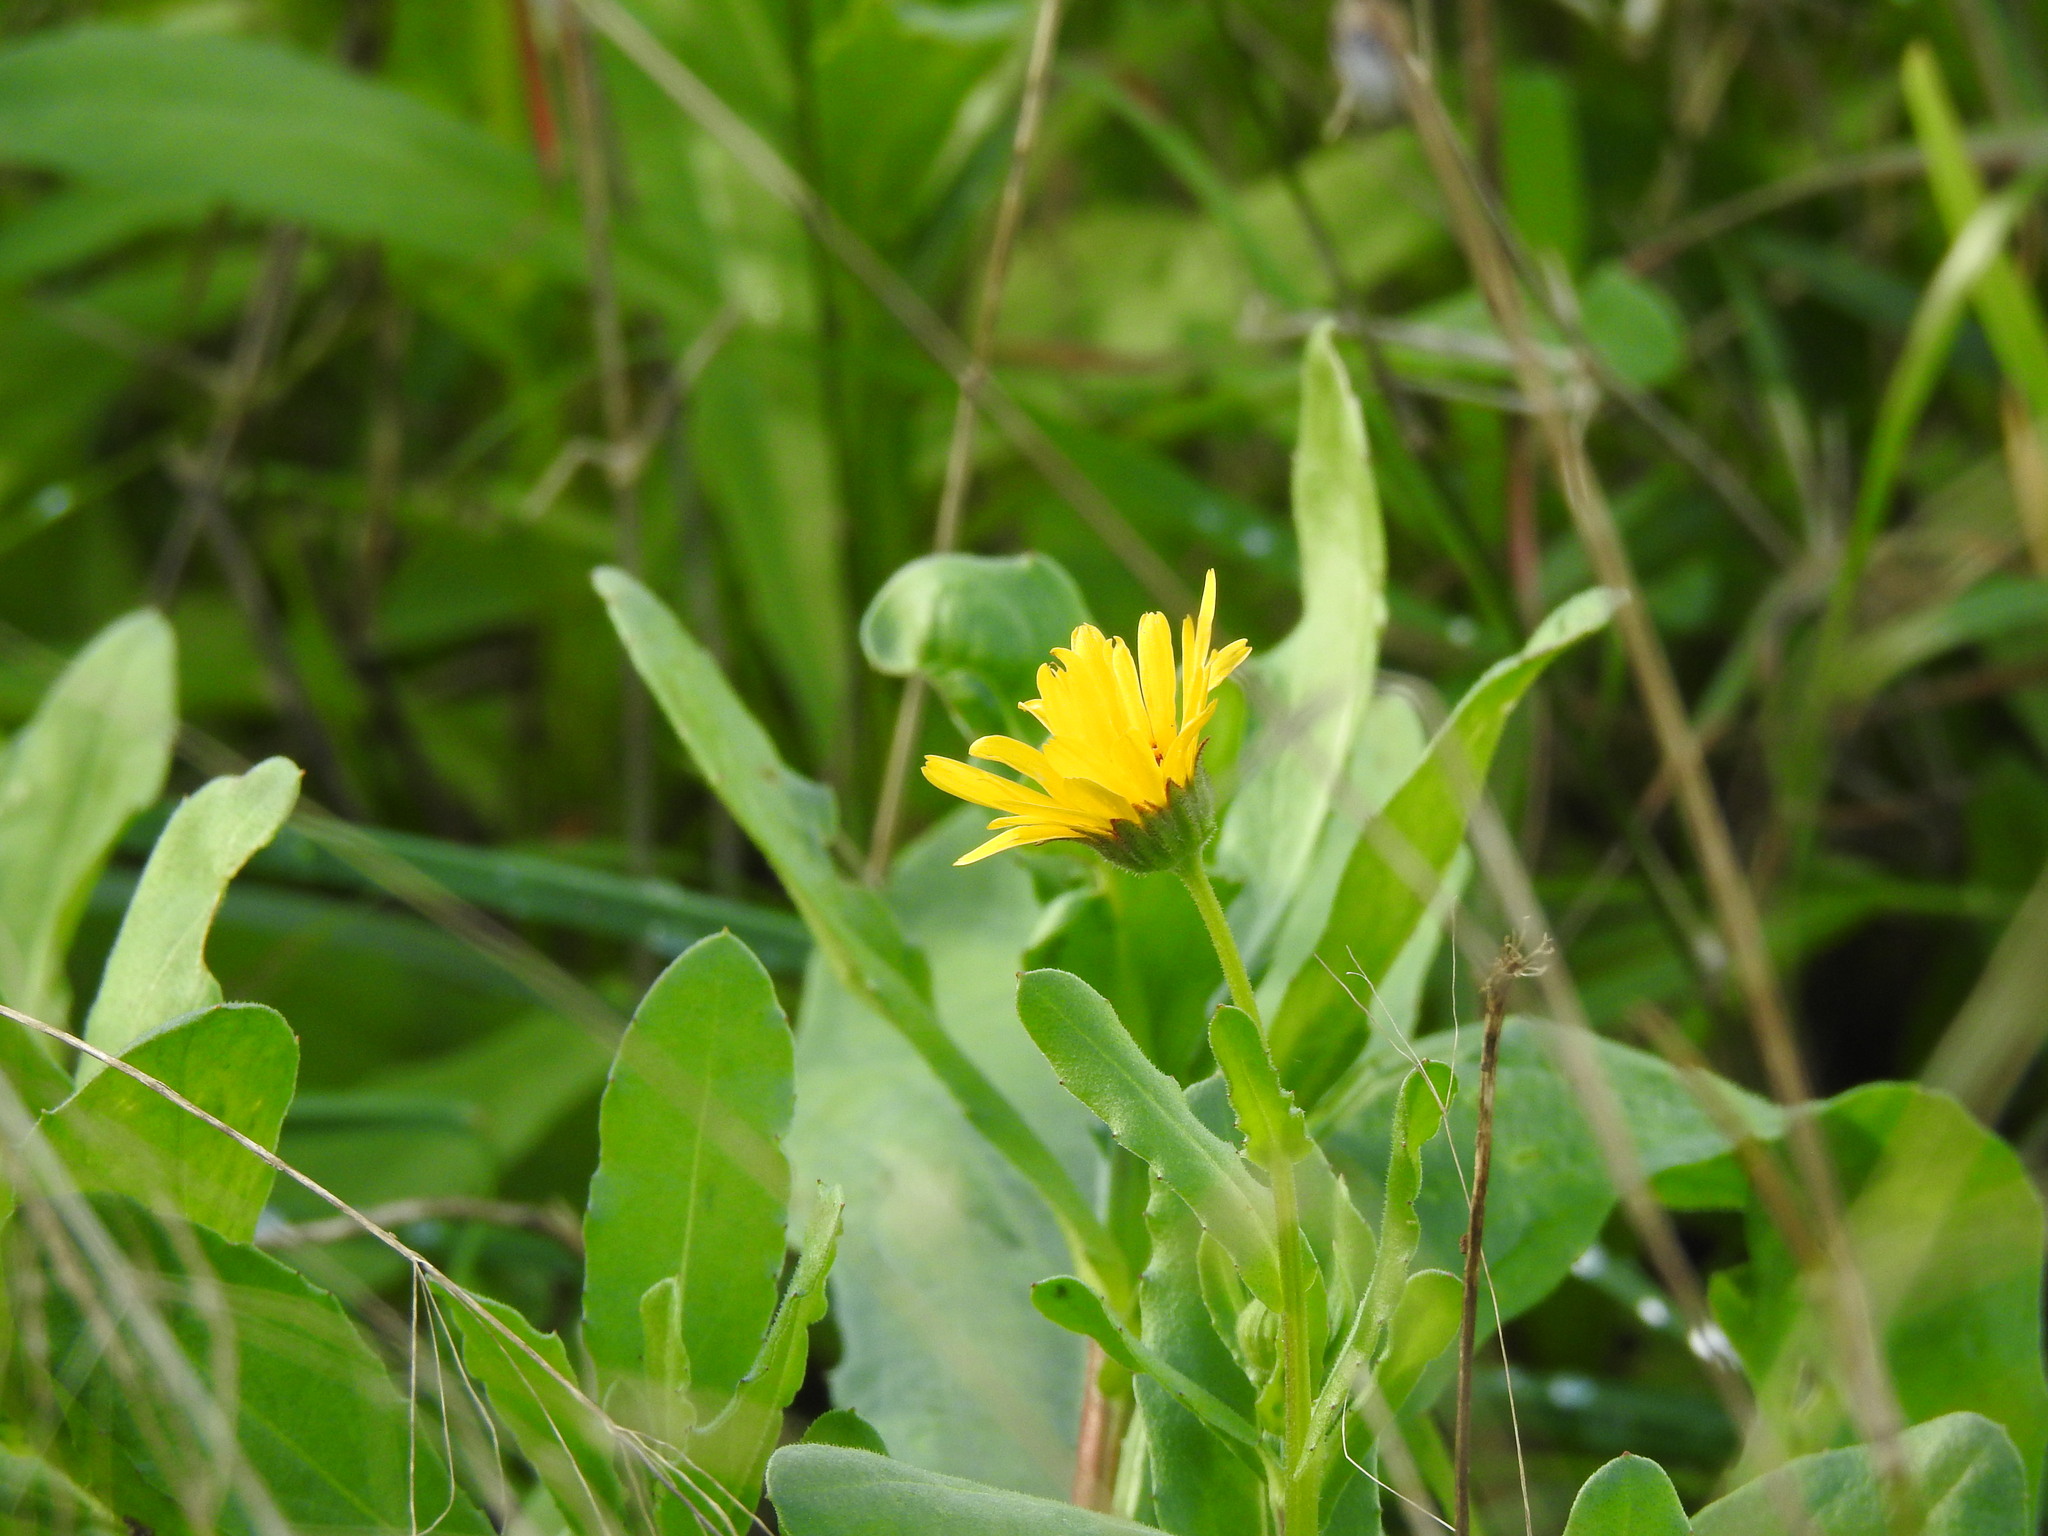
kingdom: Plantae
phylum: Tracheophyta
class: Magnoliopsida
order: Asterales
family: Asteraceae
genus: Calendula
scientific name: Calendula arvensis
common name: Field marigold
